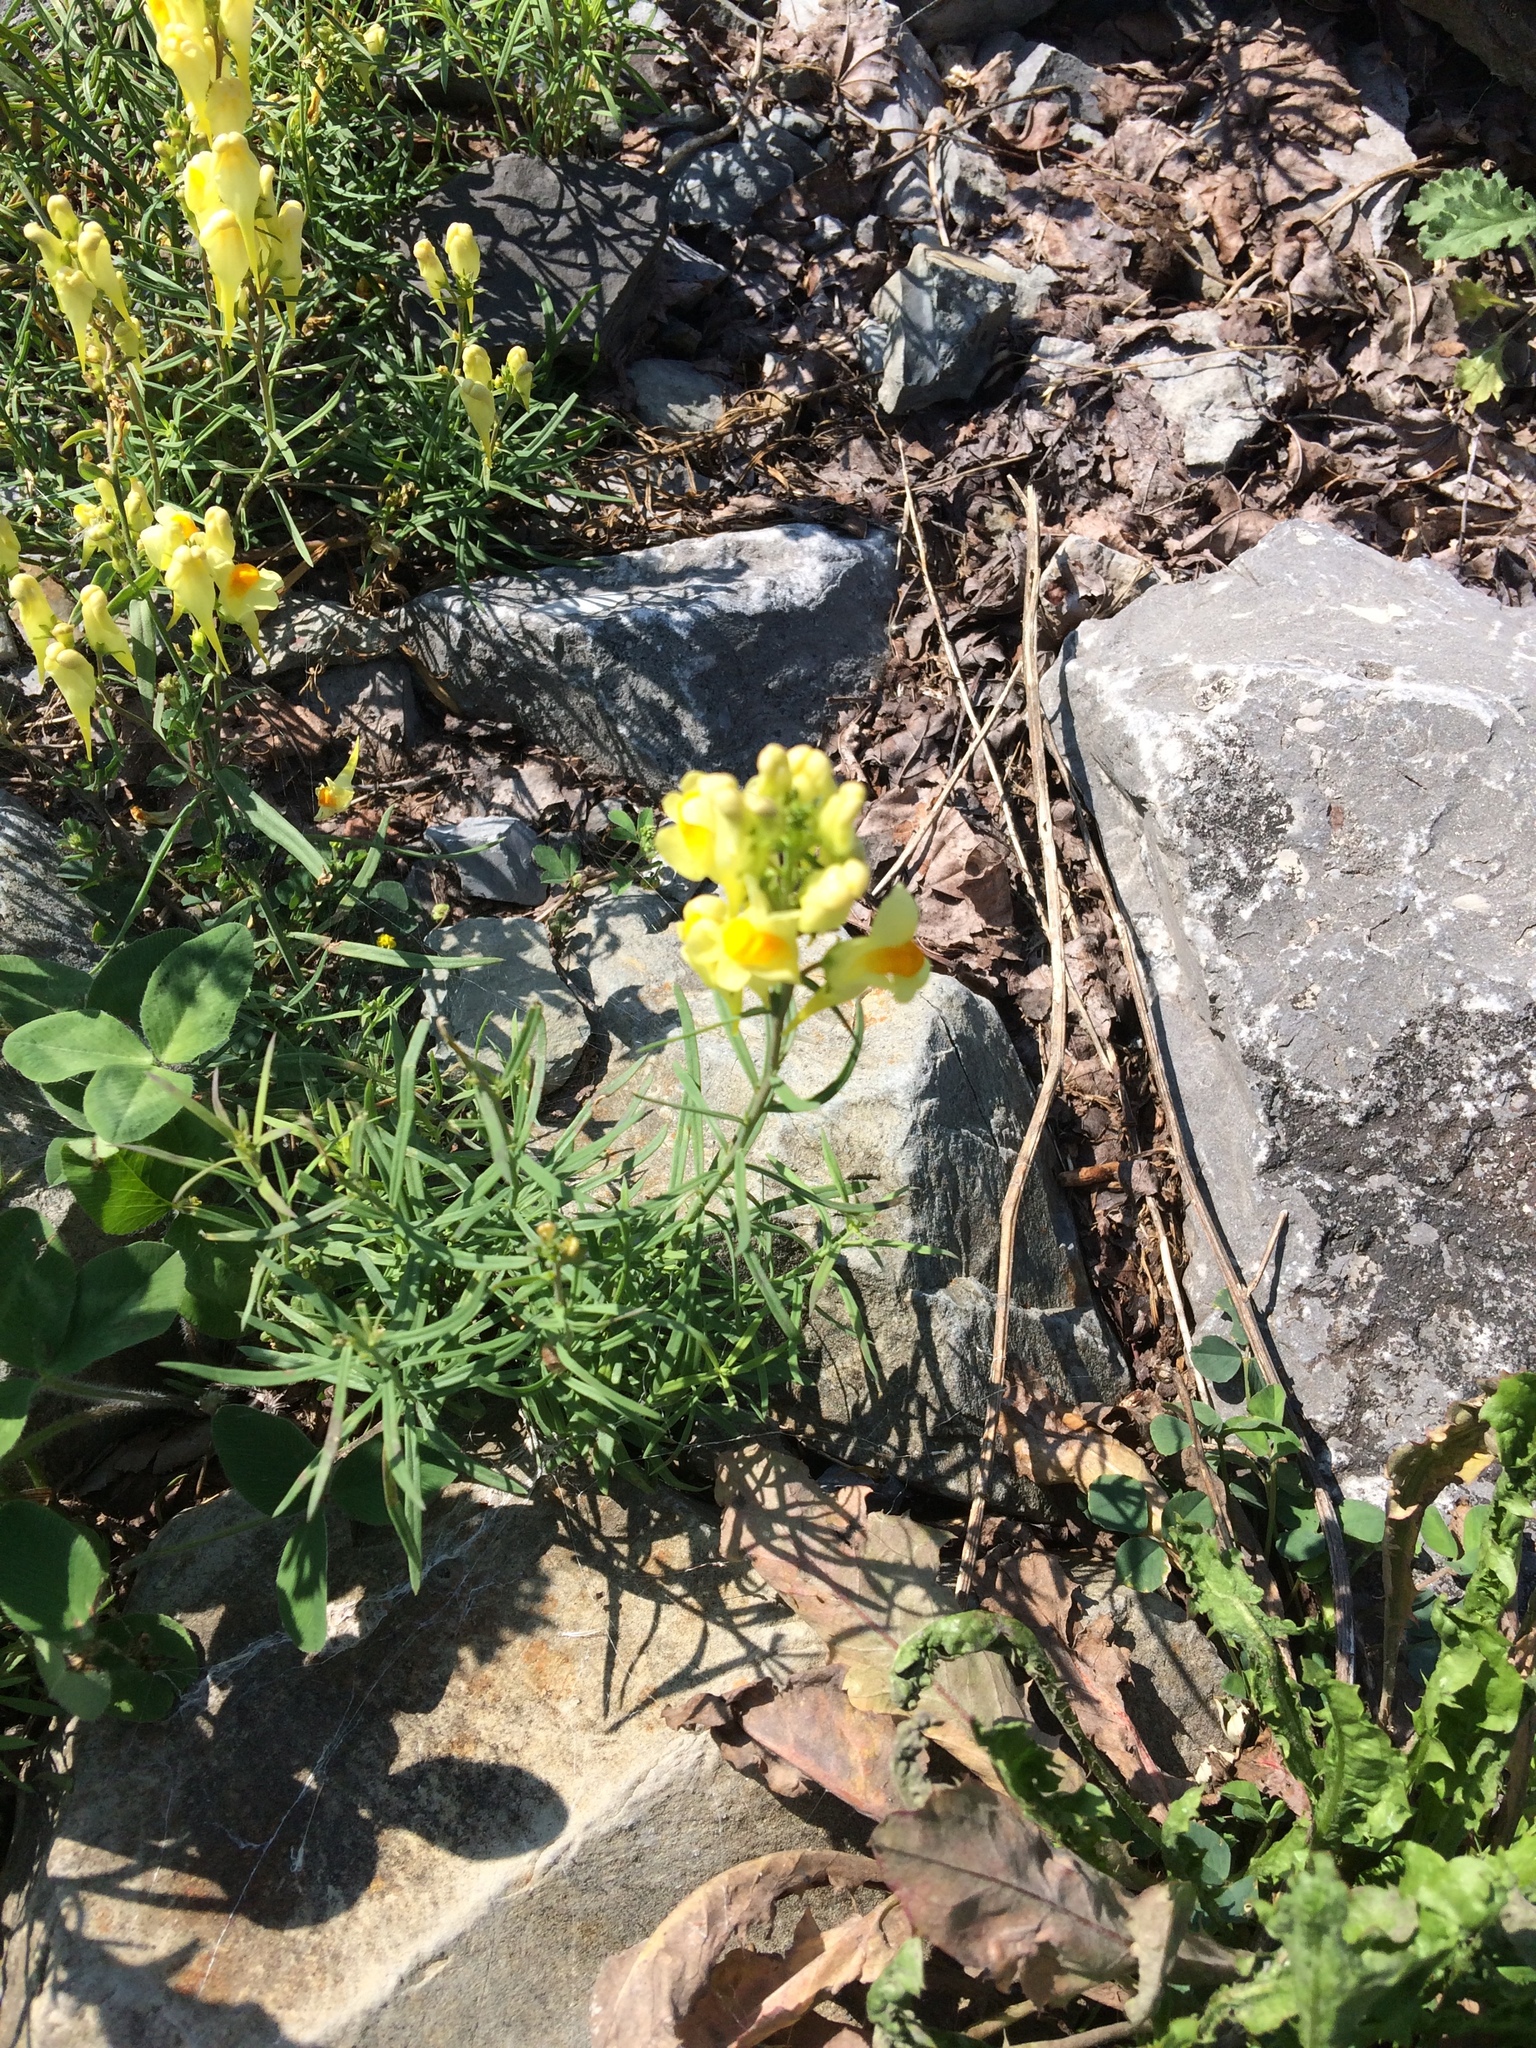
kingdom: Plantae
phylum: Tracheophyta
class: Magnoliopsida
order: Lamiales
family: Plantaginaceae
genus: Linaria
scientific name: Linaria vulgaris
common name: Butter and eggs
